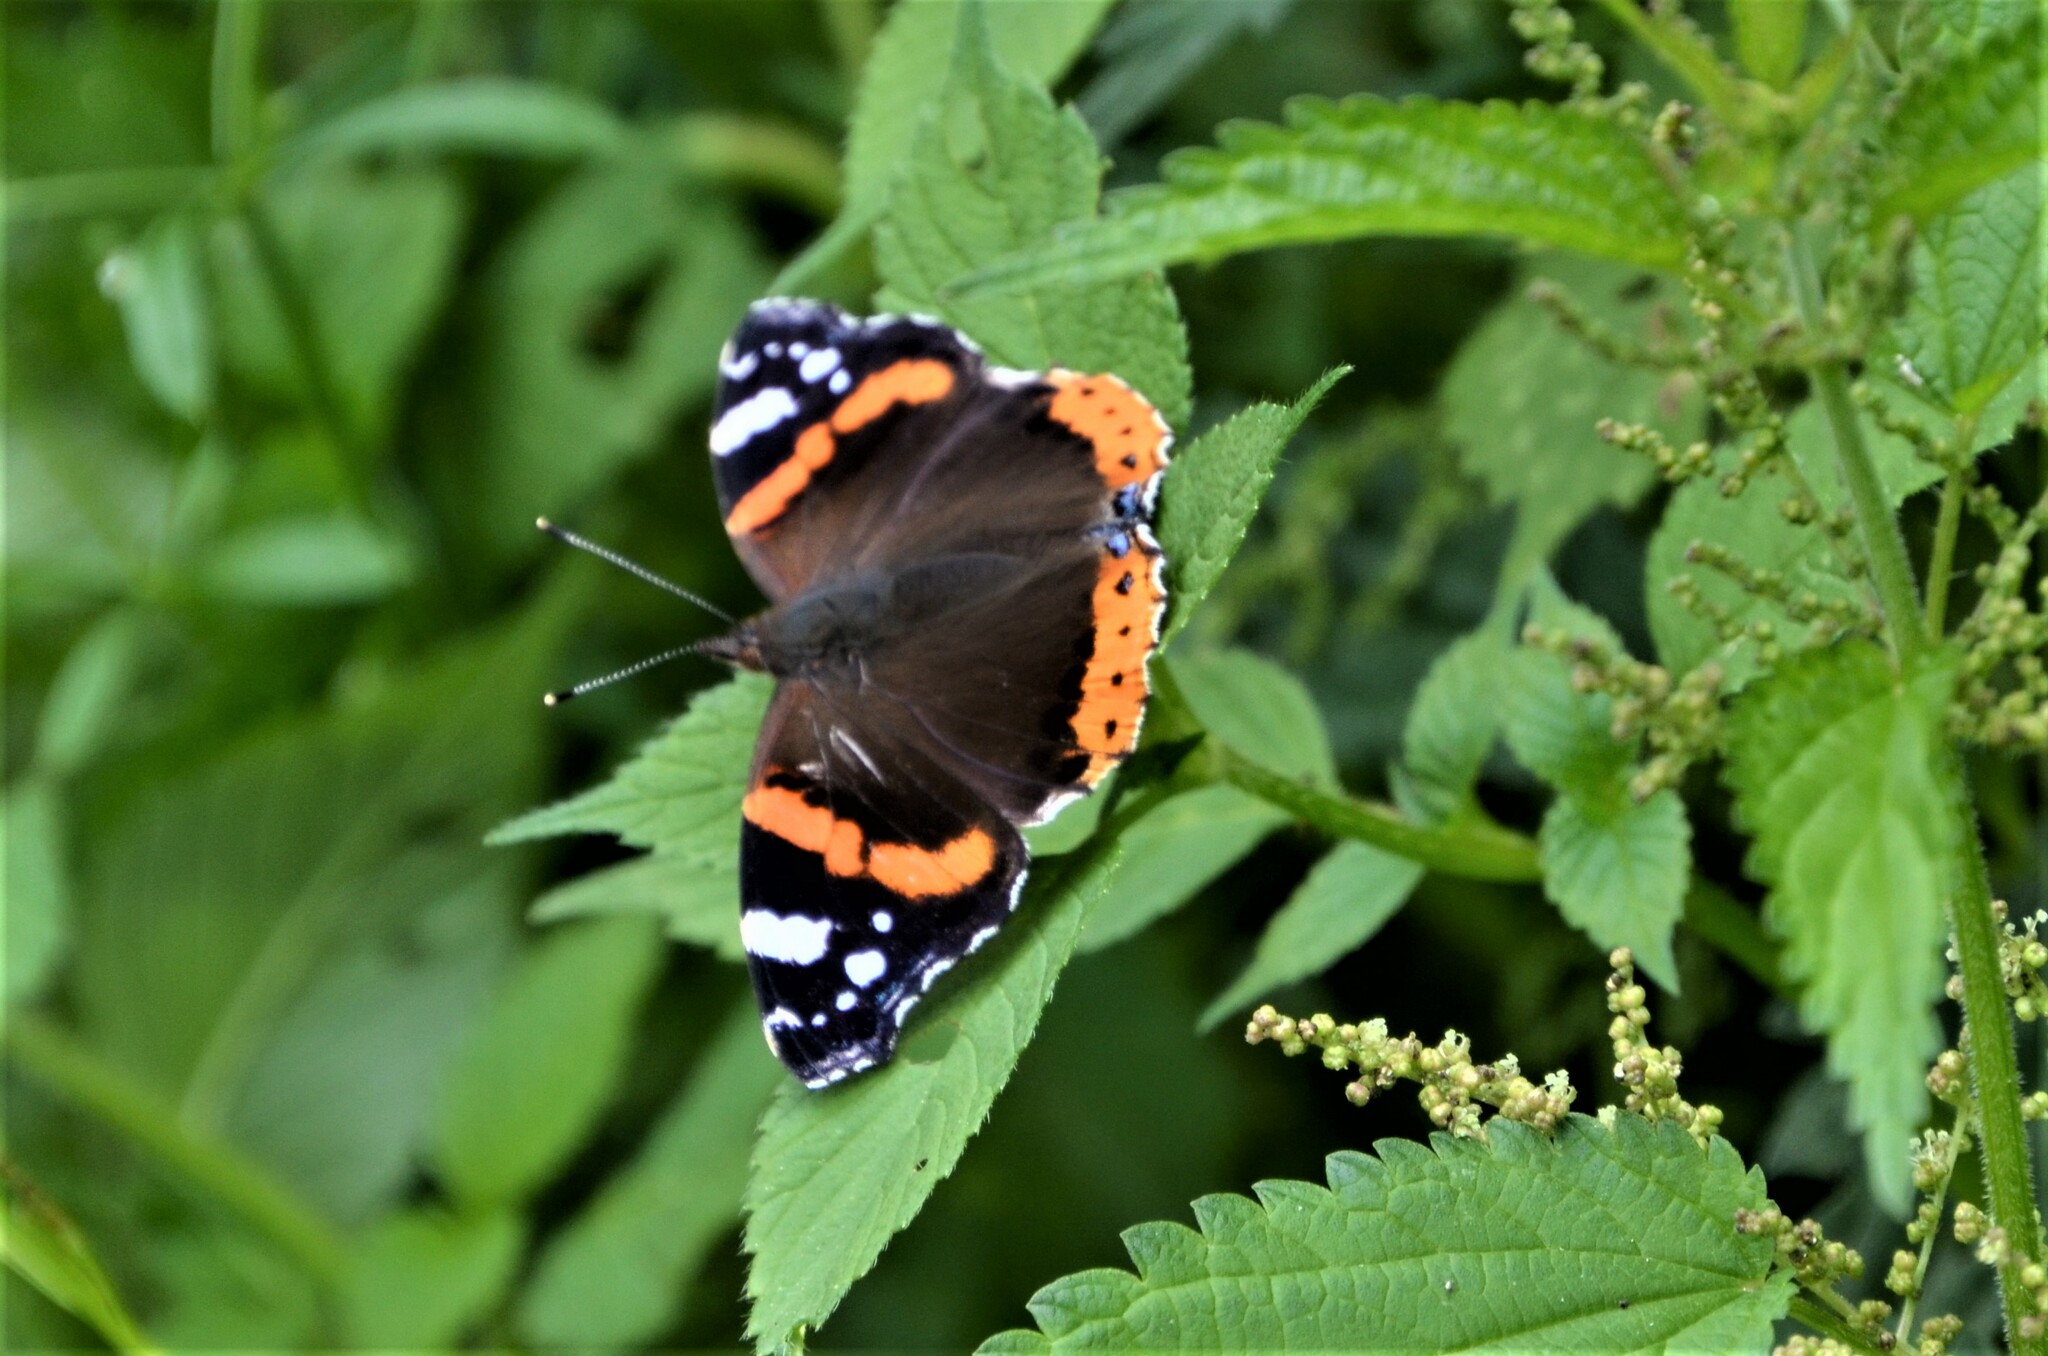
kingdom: Animalia
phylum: Arthropoda
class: Insecta
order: Lepidoptera
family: Nymphalidae
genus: Vanessa
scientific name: Vanessa atalanta
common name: Red admiral
